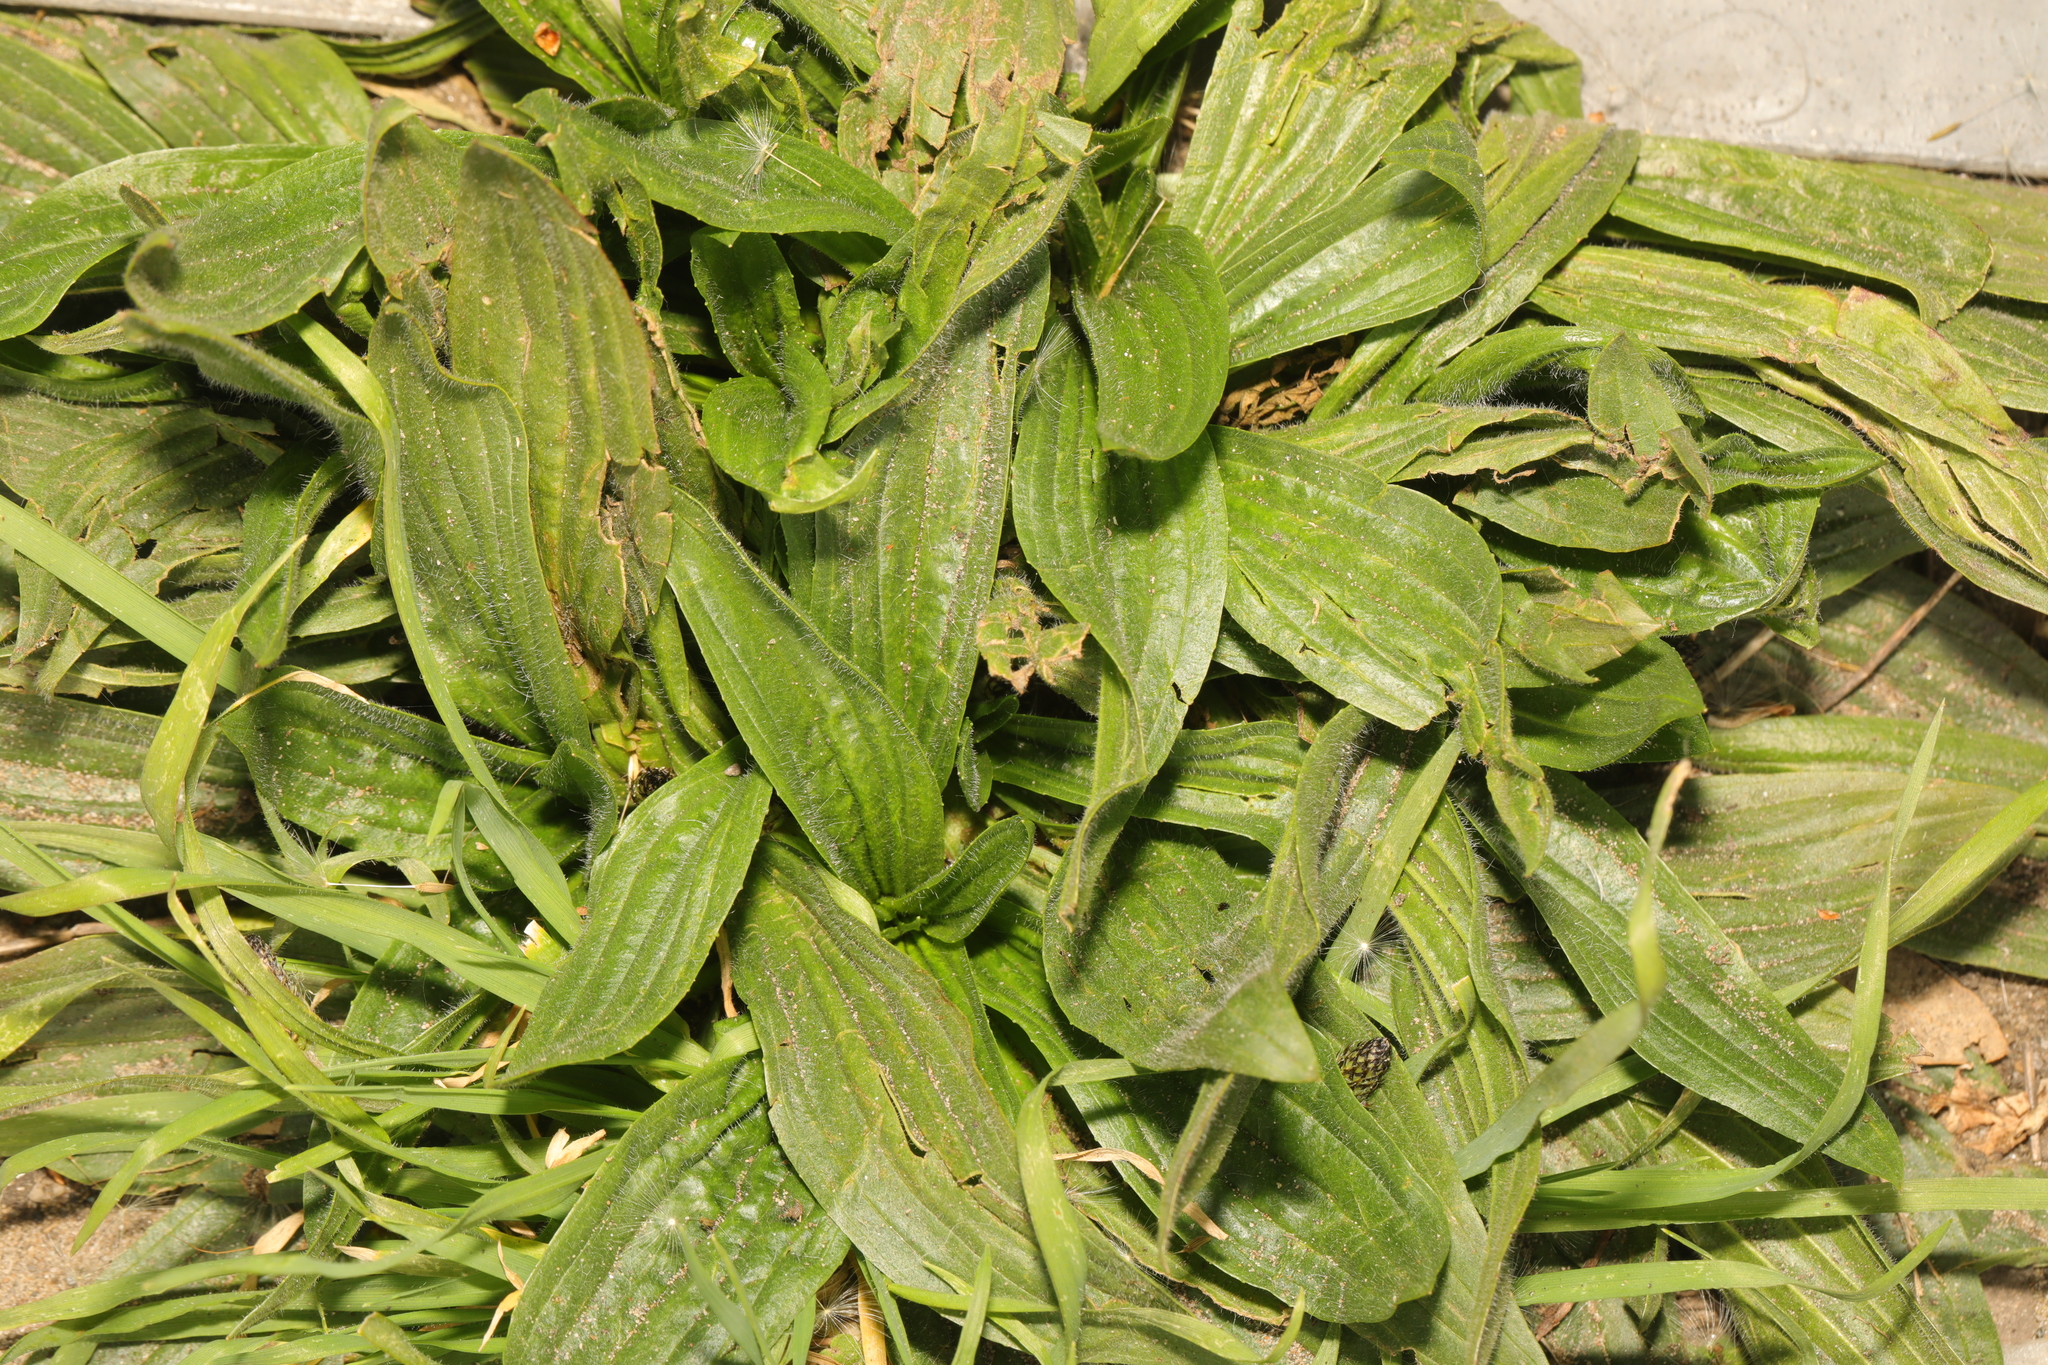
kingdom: Plantae
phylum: Tracheophyta
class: Magnoliopsida
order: Lamiales
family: Plantaginaceae
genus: Plantago
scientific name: Plantago lanceolata
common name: Ribwort plantain
